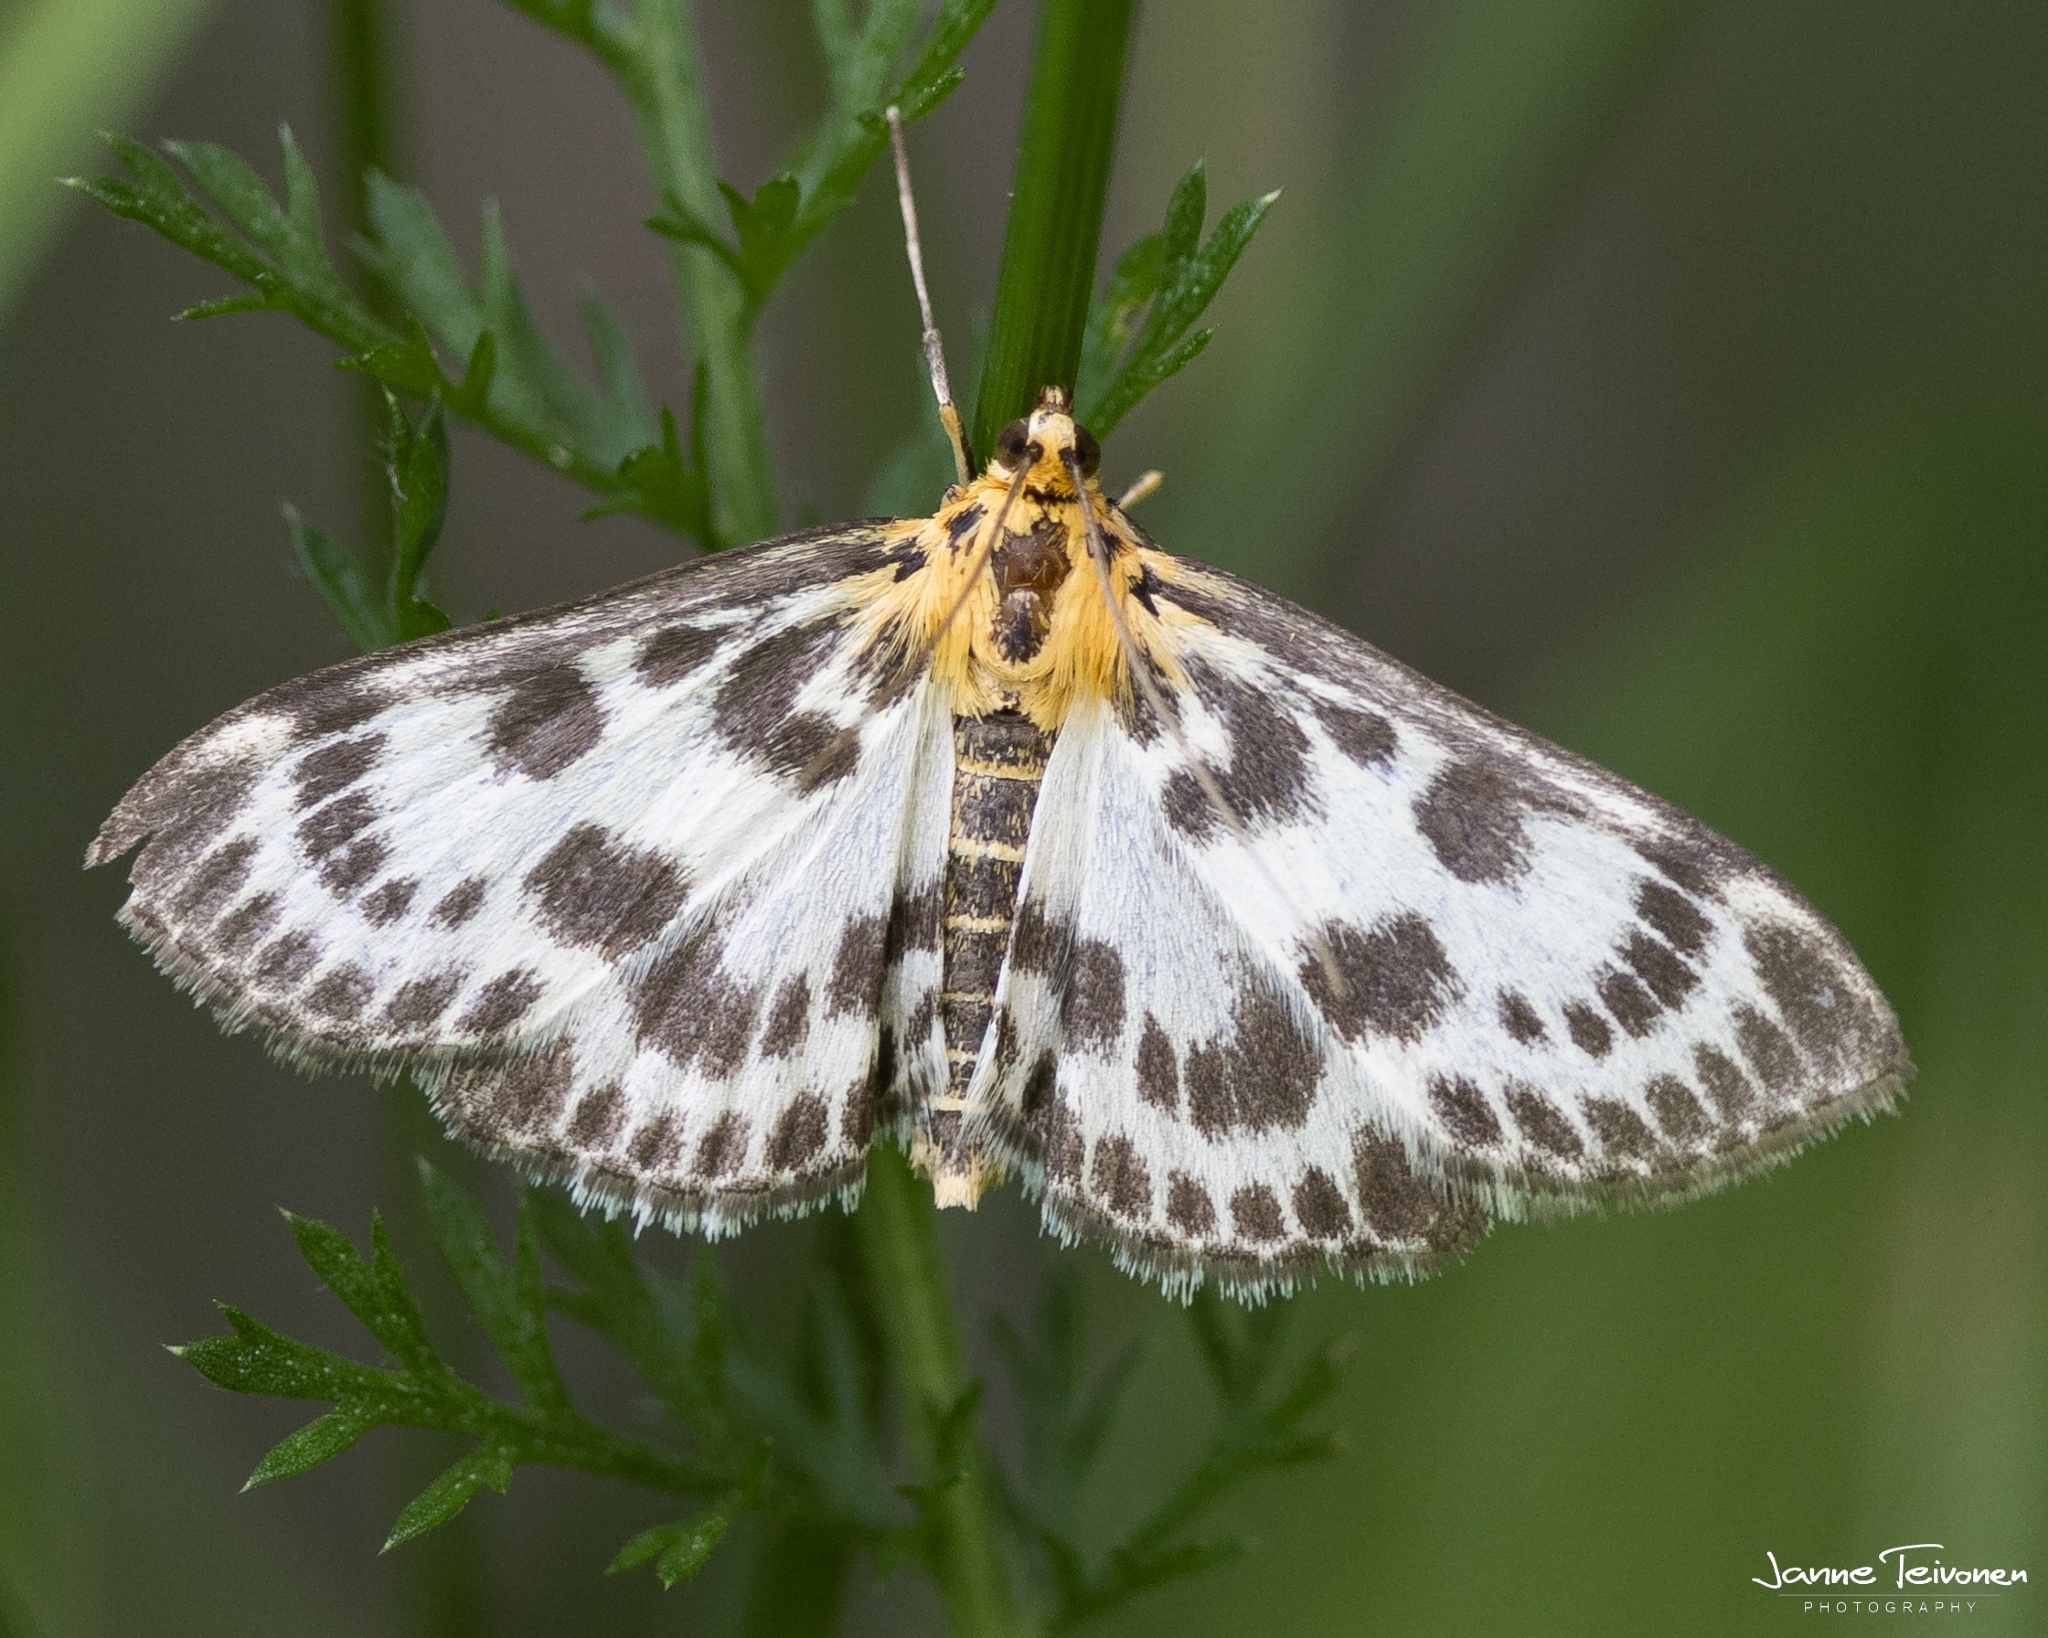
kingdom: Animalia
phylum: Arthropoda
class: Insecta
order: Lepidoptera
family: Crambidae
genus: Anania
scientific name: Anania hortulata
